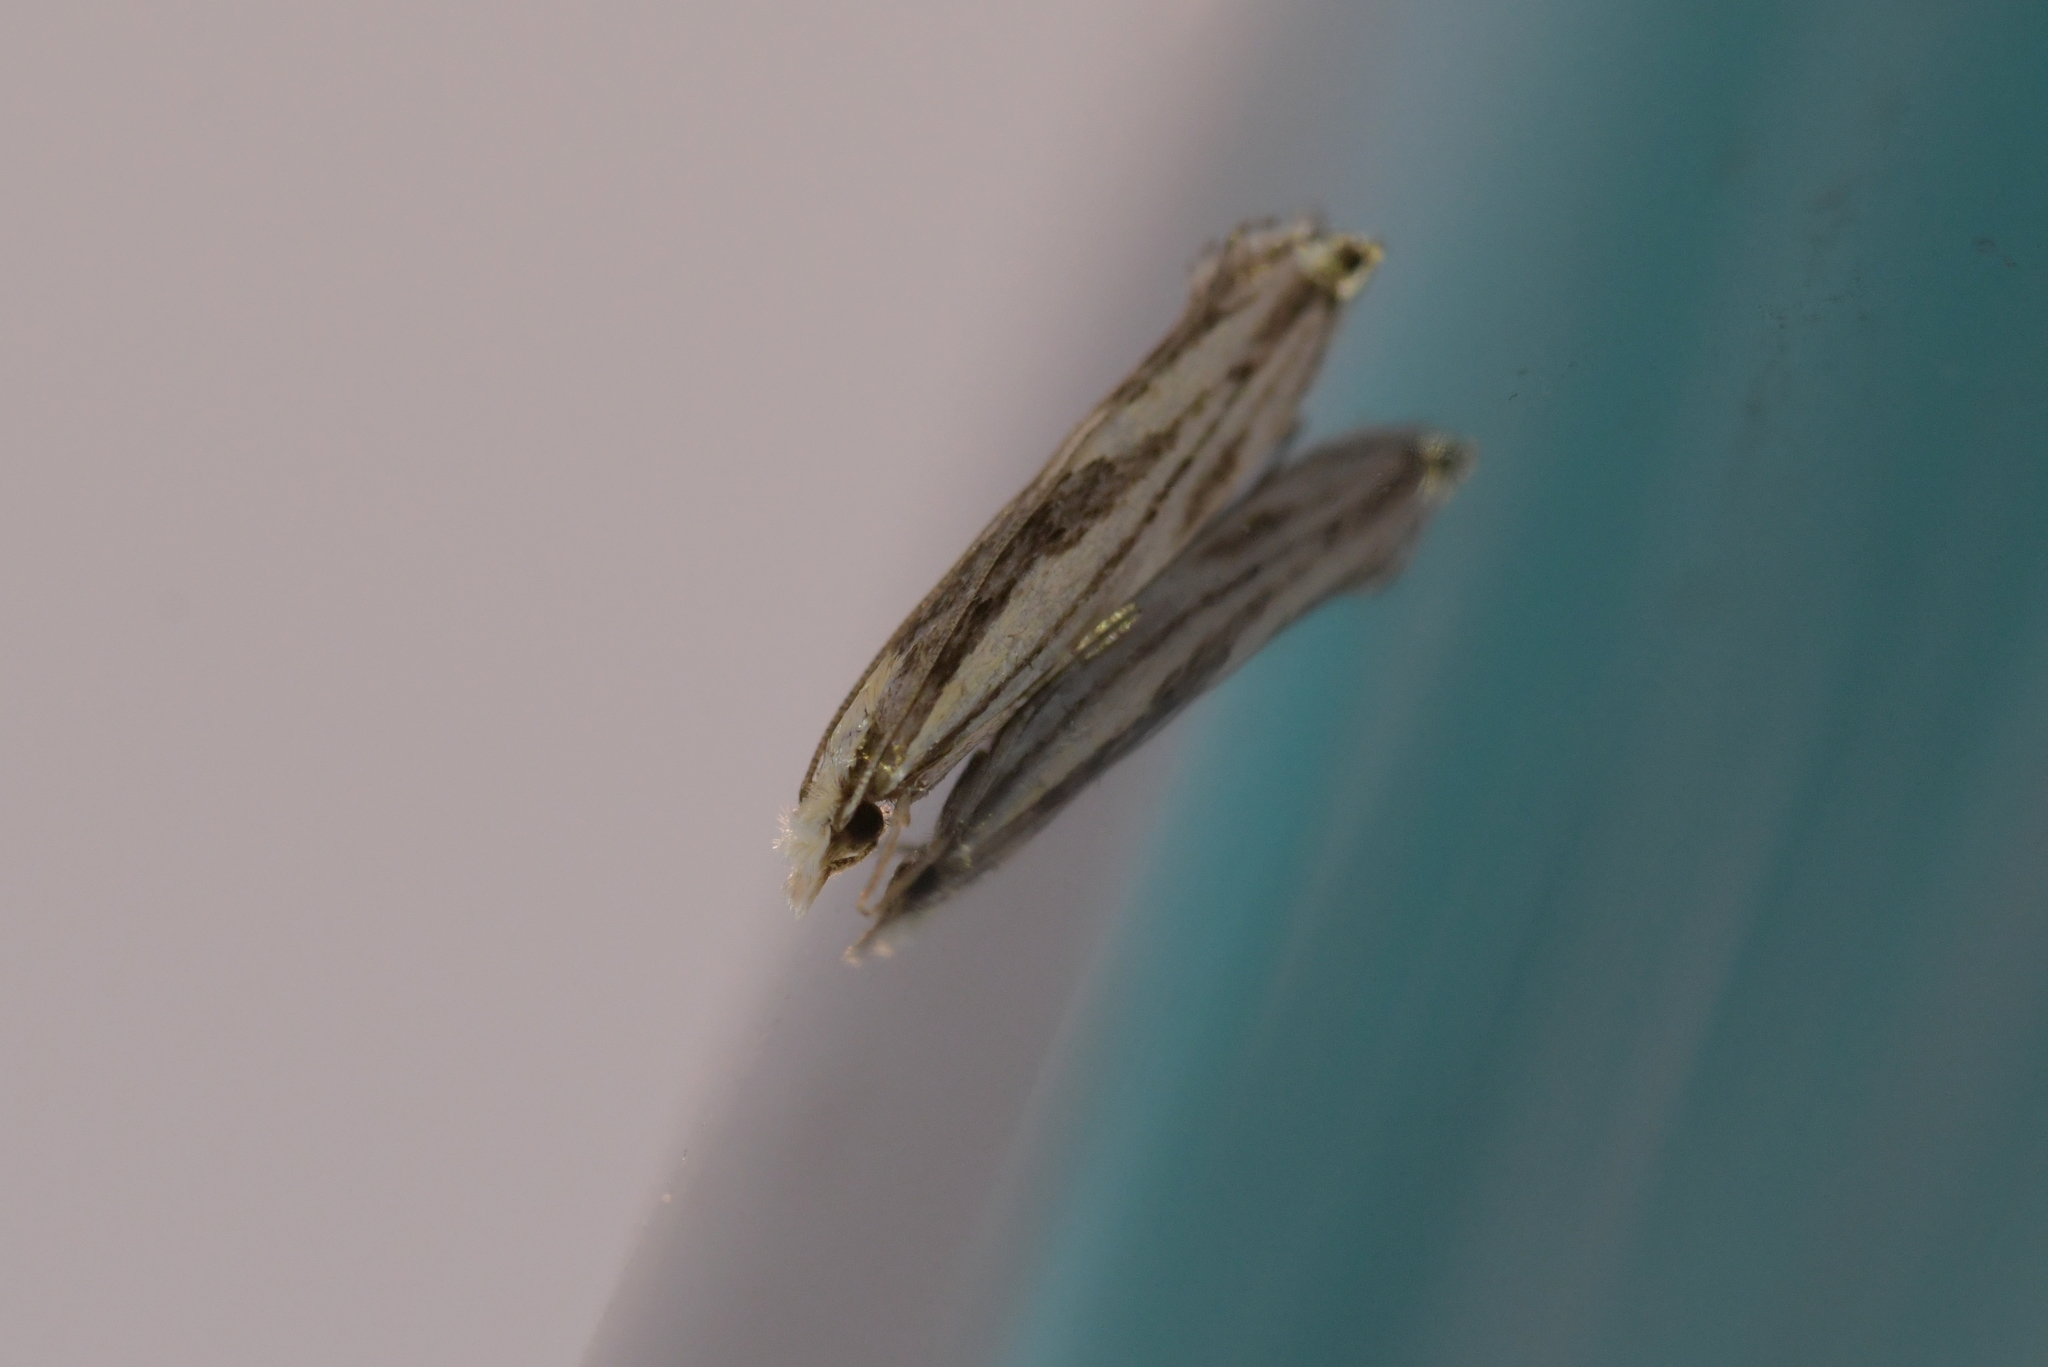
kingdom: Animalia
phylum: Arthropoda
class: Insecta
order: Lepidoptera
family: Tineidae
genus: Erechthias
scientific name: Erechthias chasmatias
